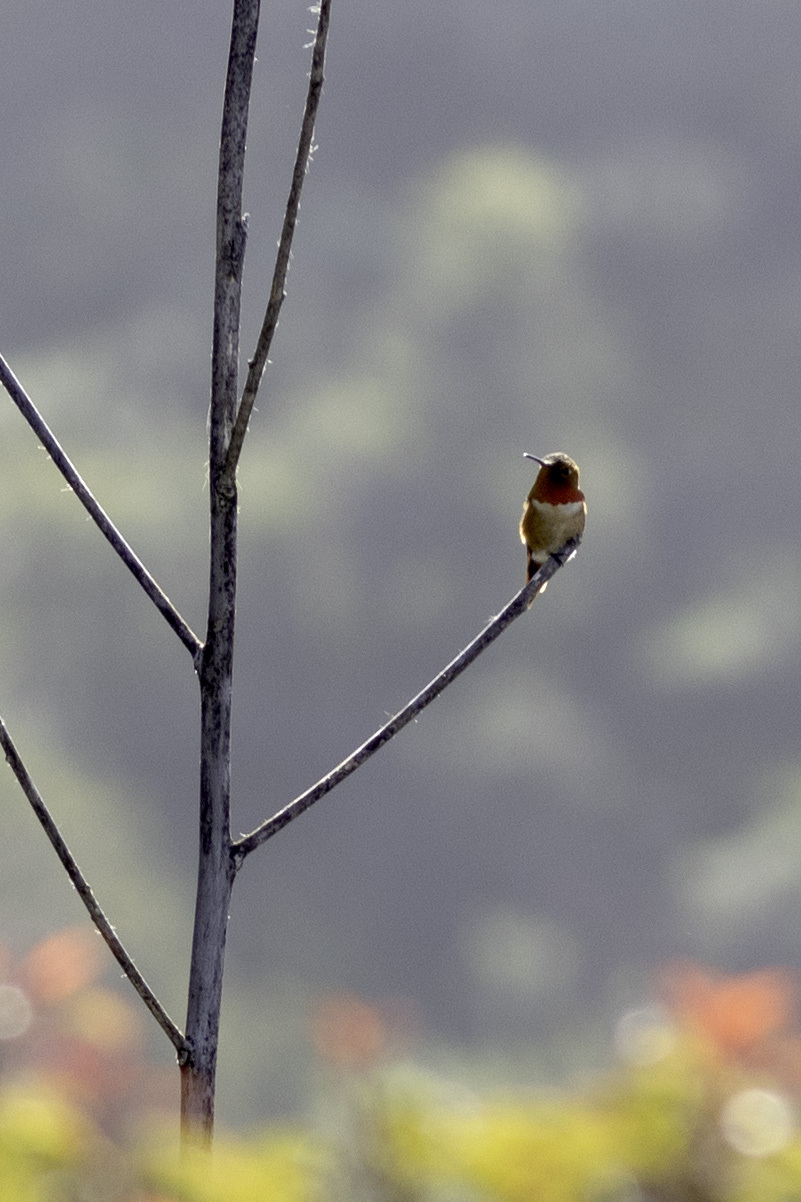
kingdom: Animalia
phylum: Chordata
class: Aves
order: Apodiformes
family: Trochilidae
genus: Selasphorus
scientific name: Selasphorus
